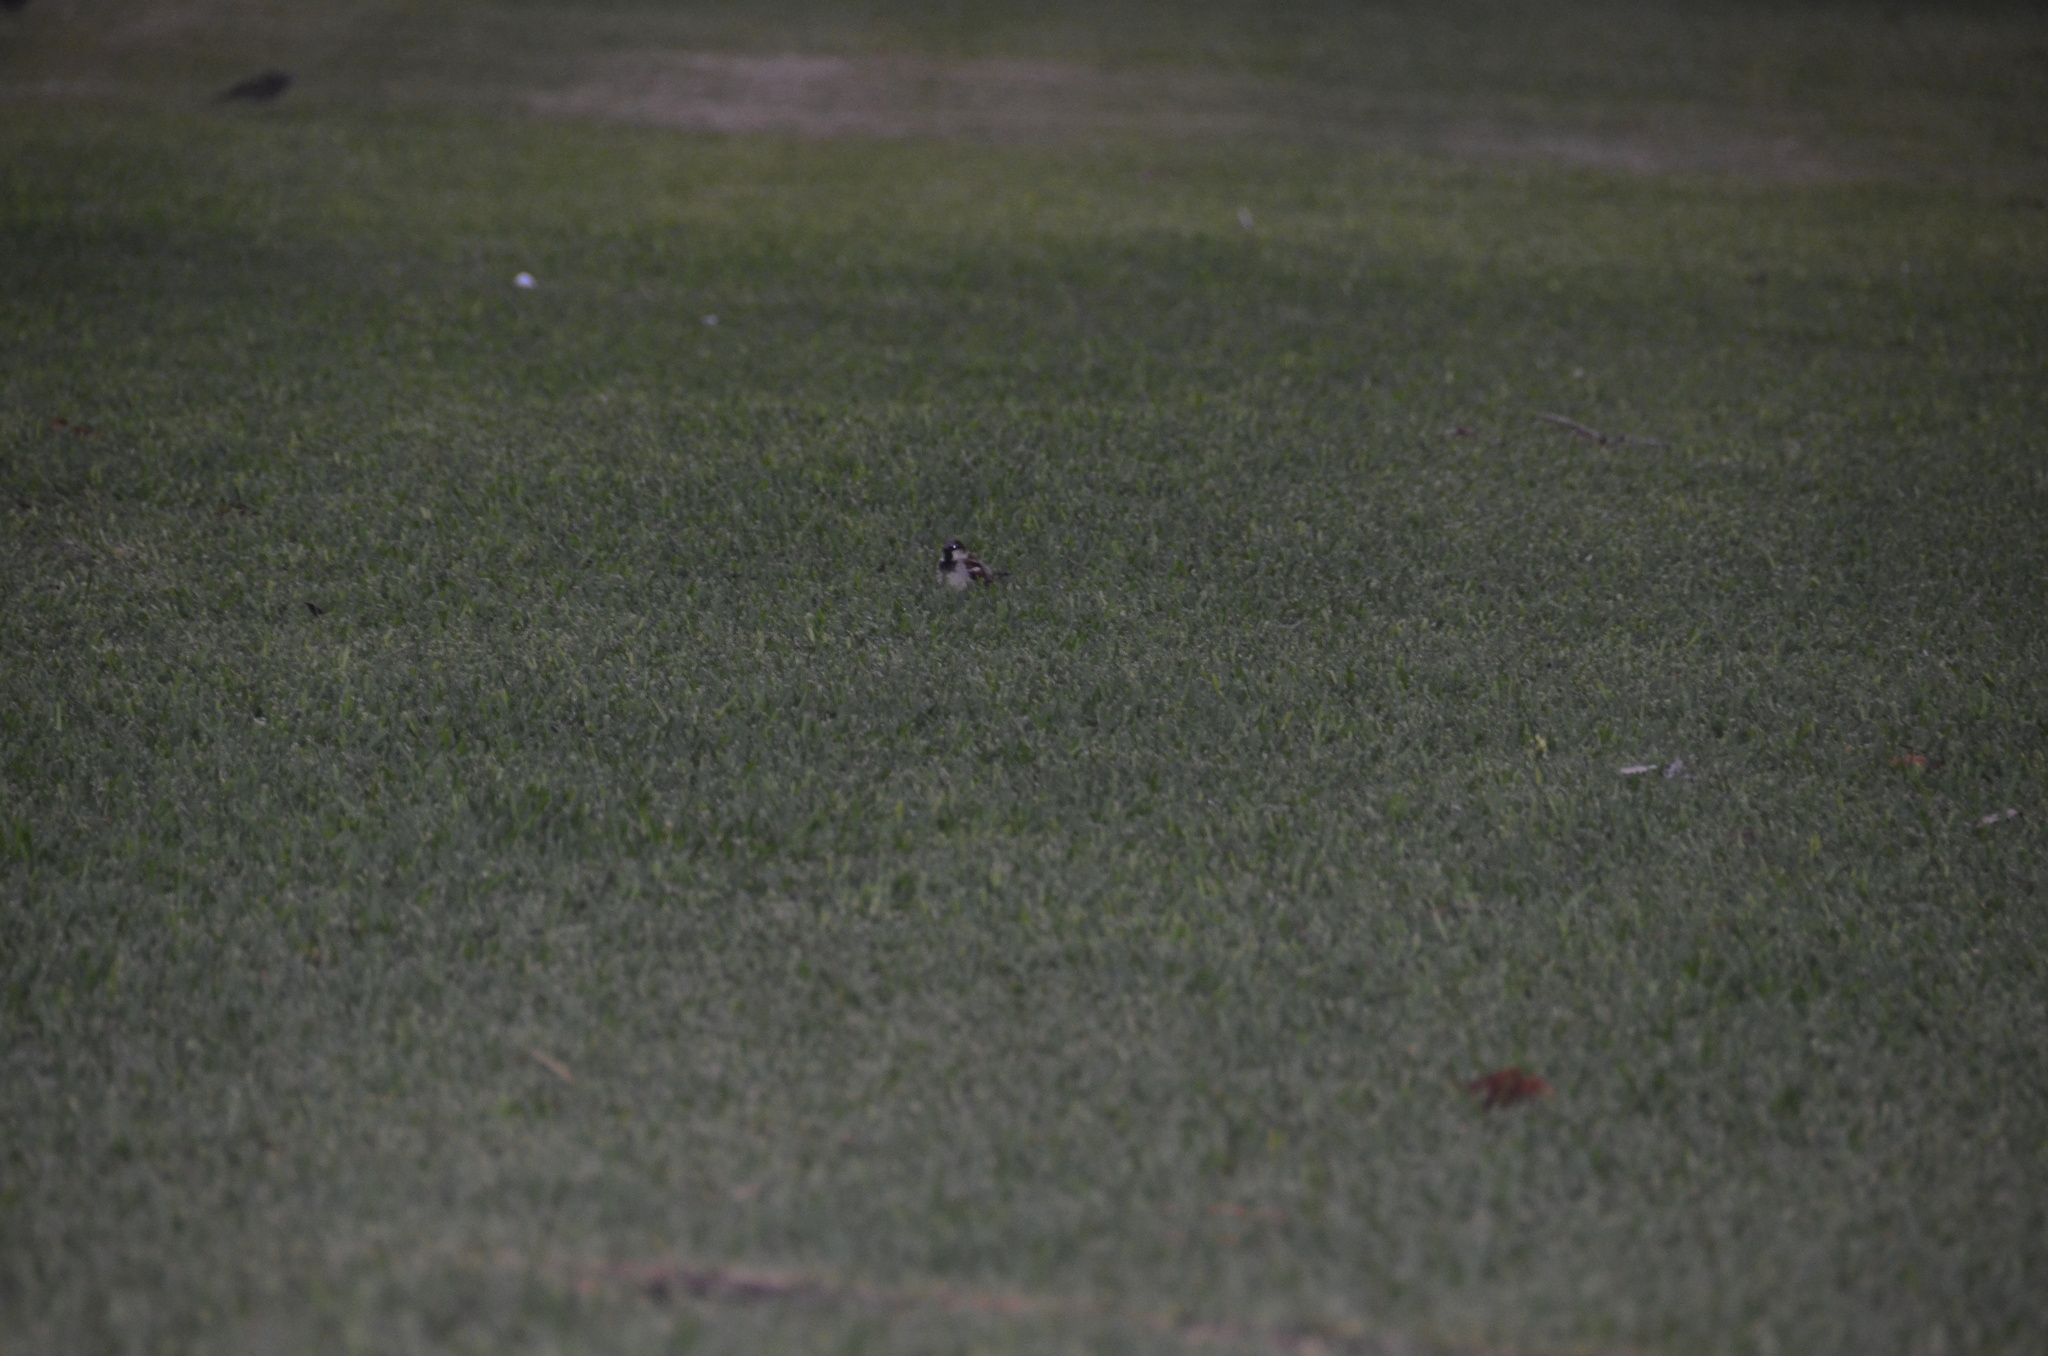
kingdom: Animalia
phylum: Chordata
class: Aves
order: Passeriformes
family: Passeridae
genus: Passer
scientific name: Passer domesticus
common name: House sparrow
